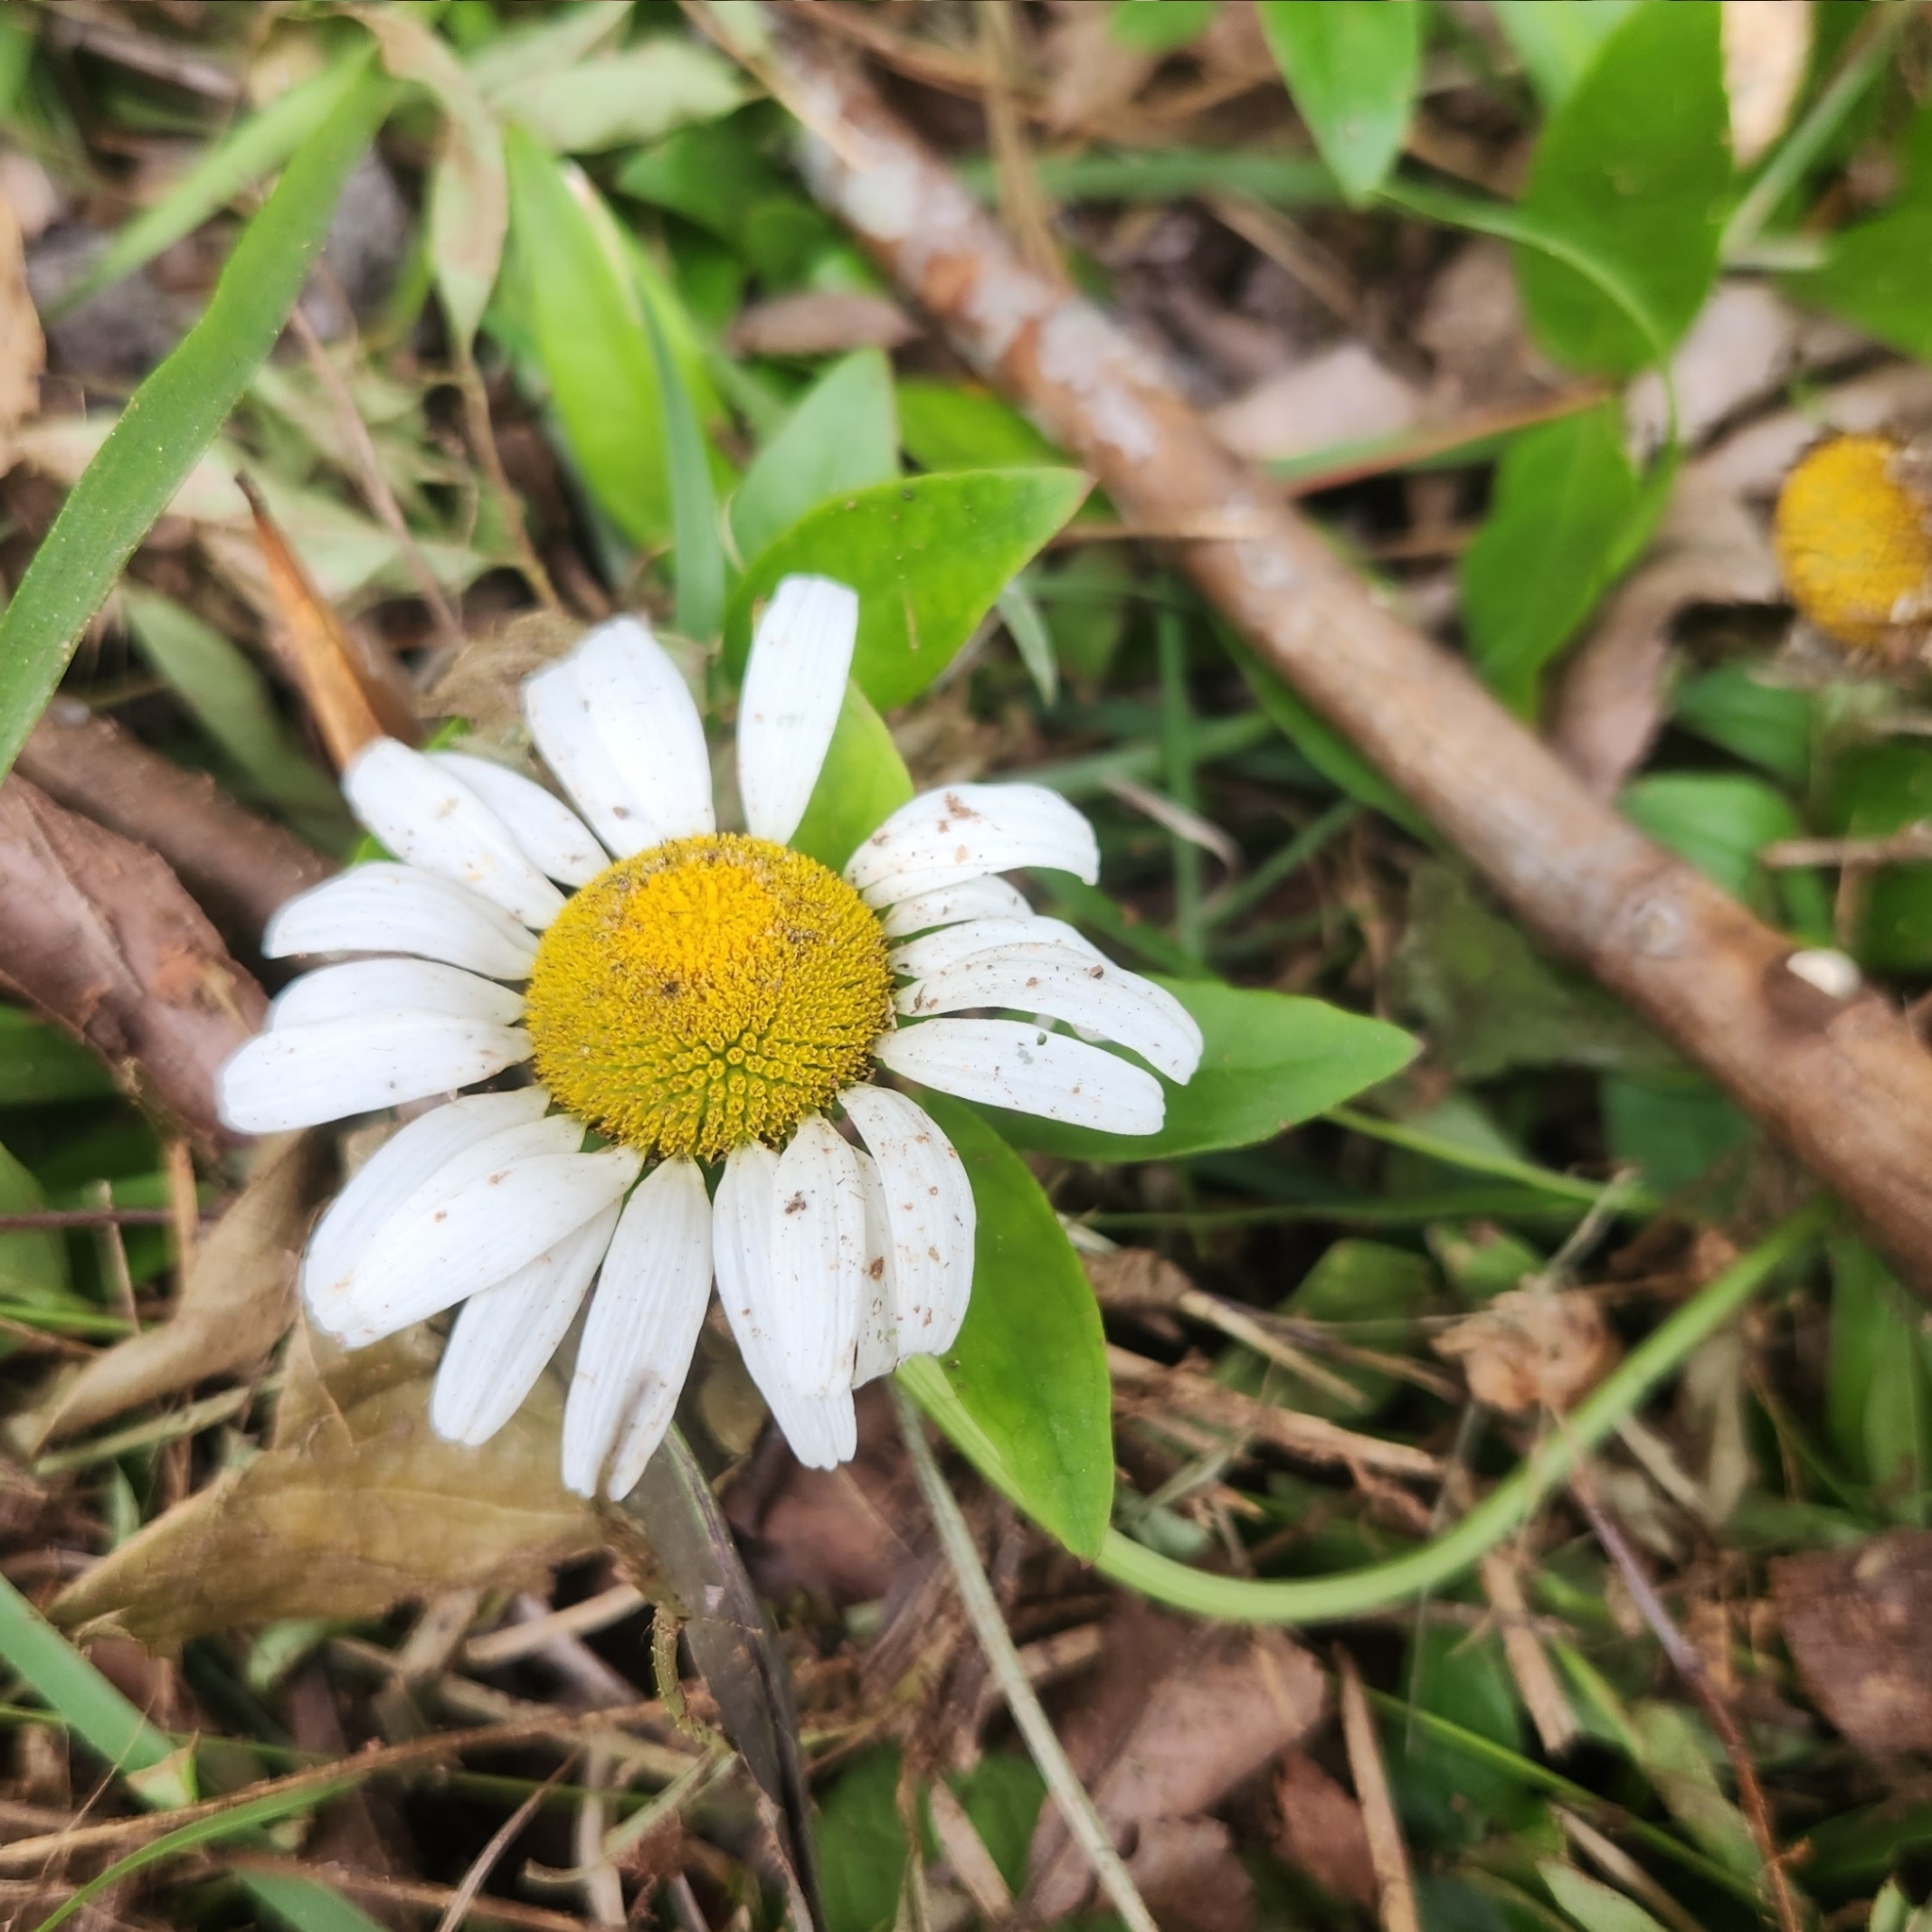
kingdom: Plantae
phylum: Tracheophyta
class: Magnoliopsida
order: Asterales
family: Asteraceae
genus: Leucanthemum
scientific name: Leucanthemum vulgare
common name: Oxeye daisy
